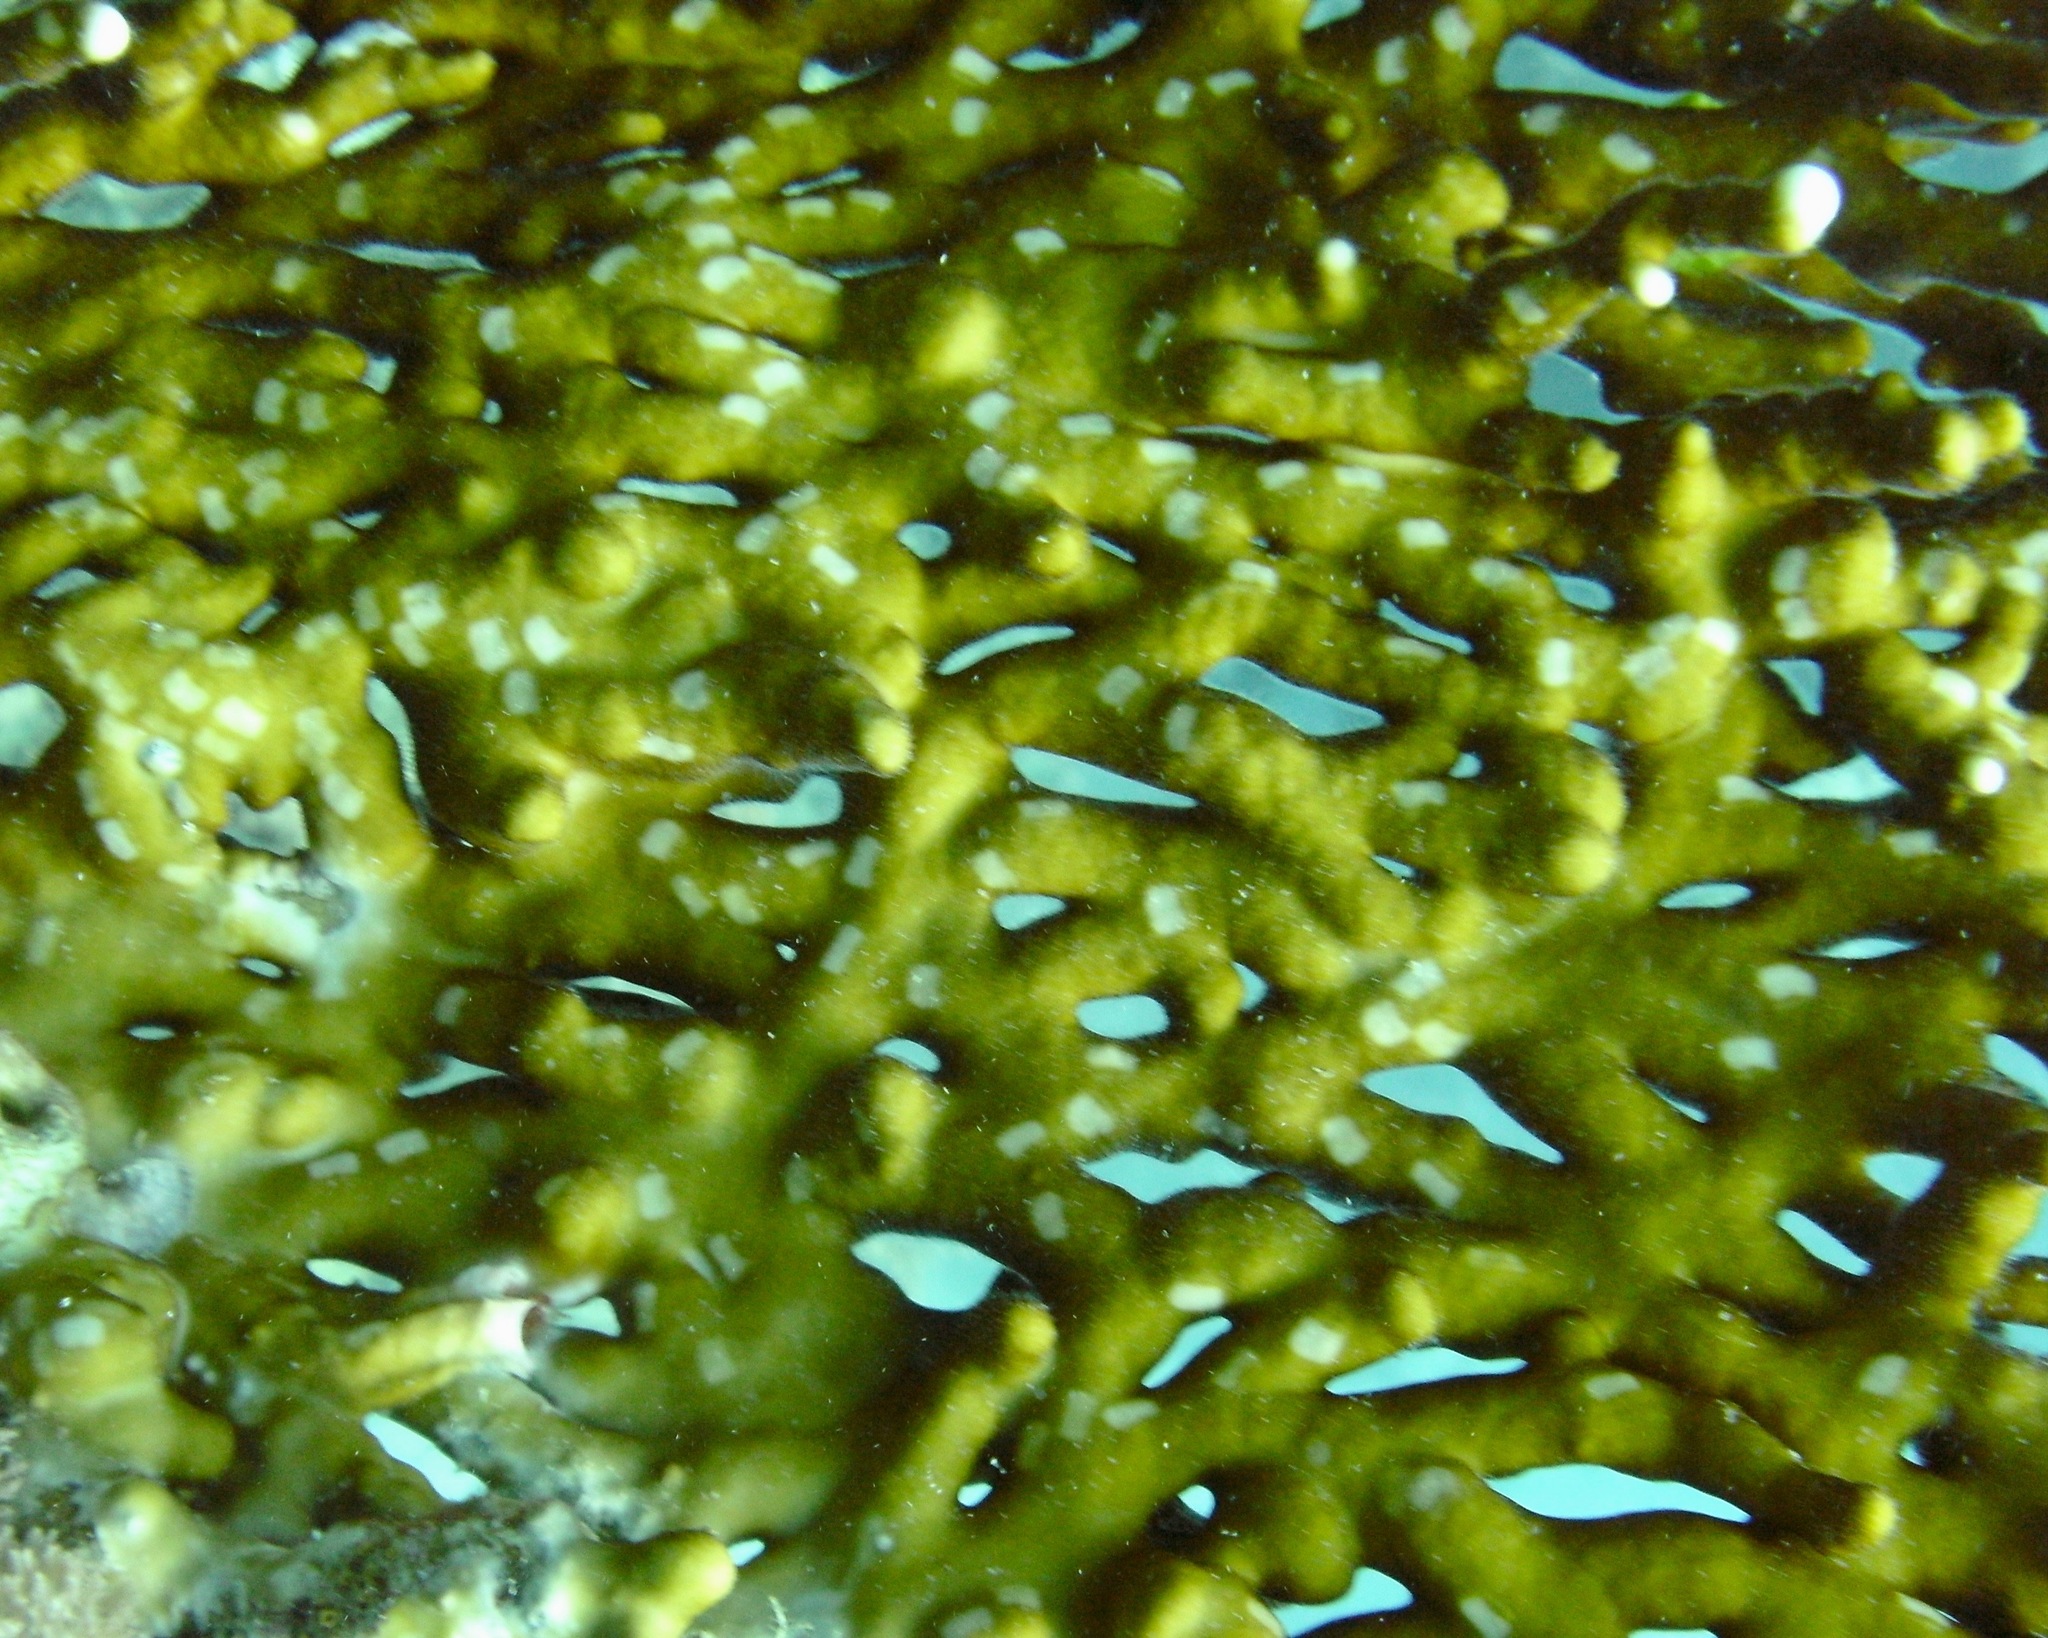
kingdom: Animalia
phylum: Cnidaria
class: Hydrozoa
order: Anthoathecata
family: Milleporidae
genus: Millepora
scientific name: Millepora dichotoma
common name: Ramified fire coral
